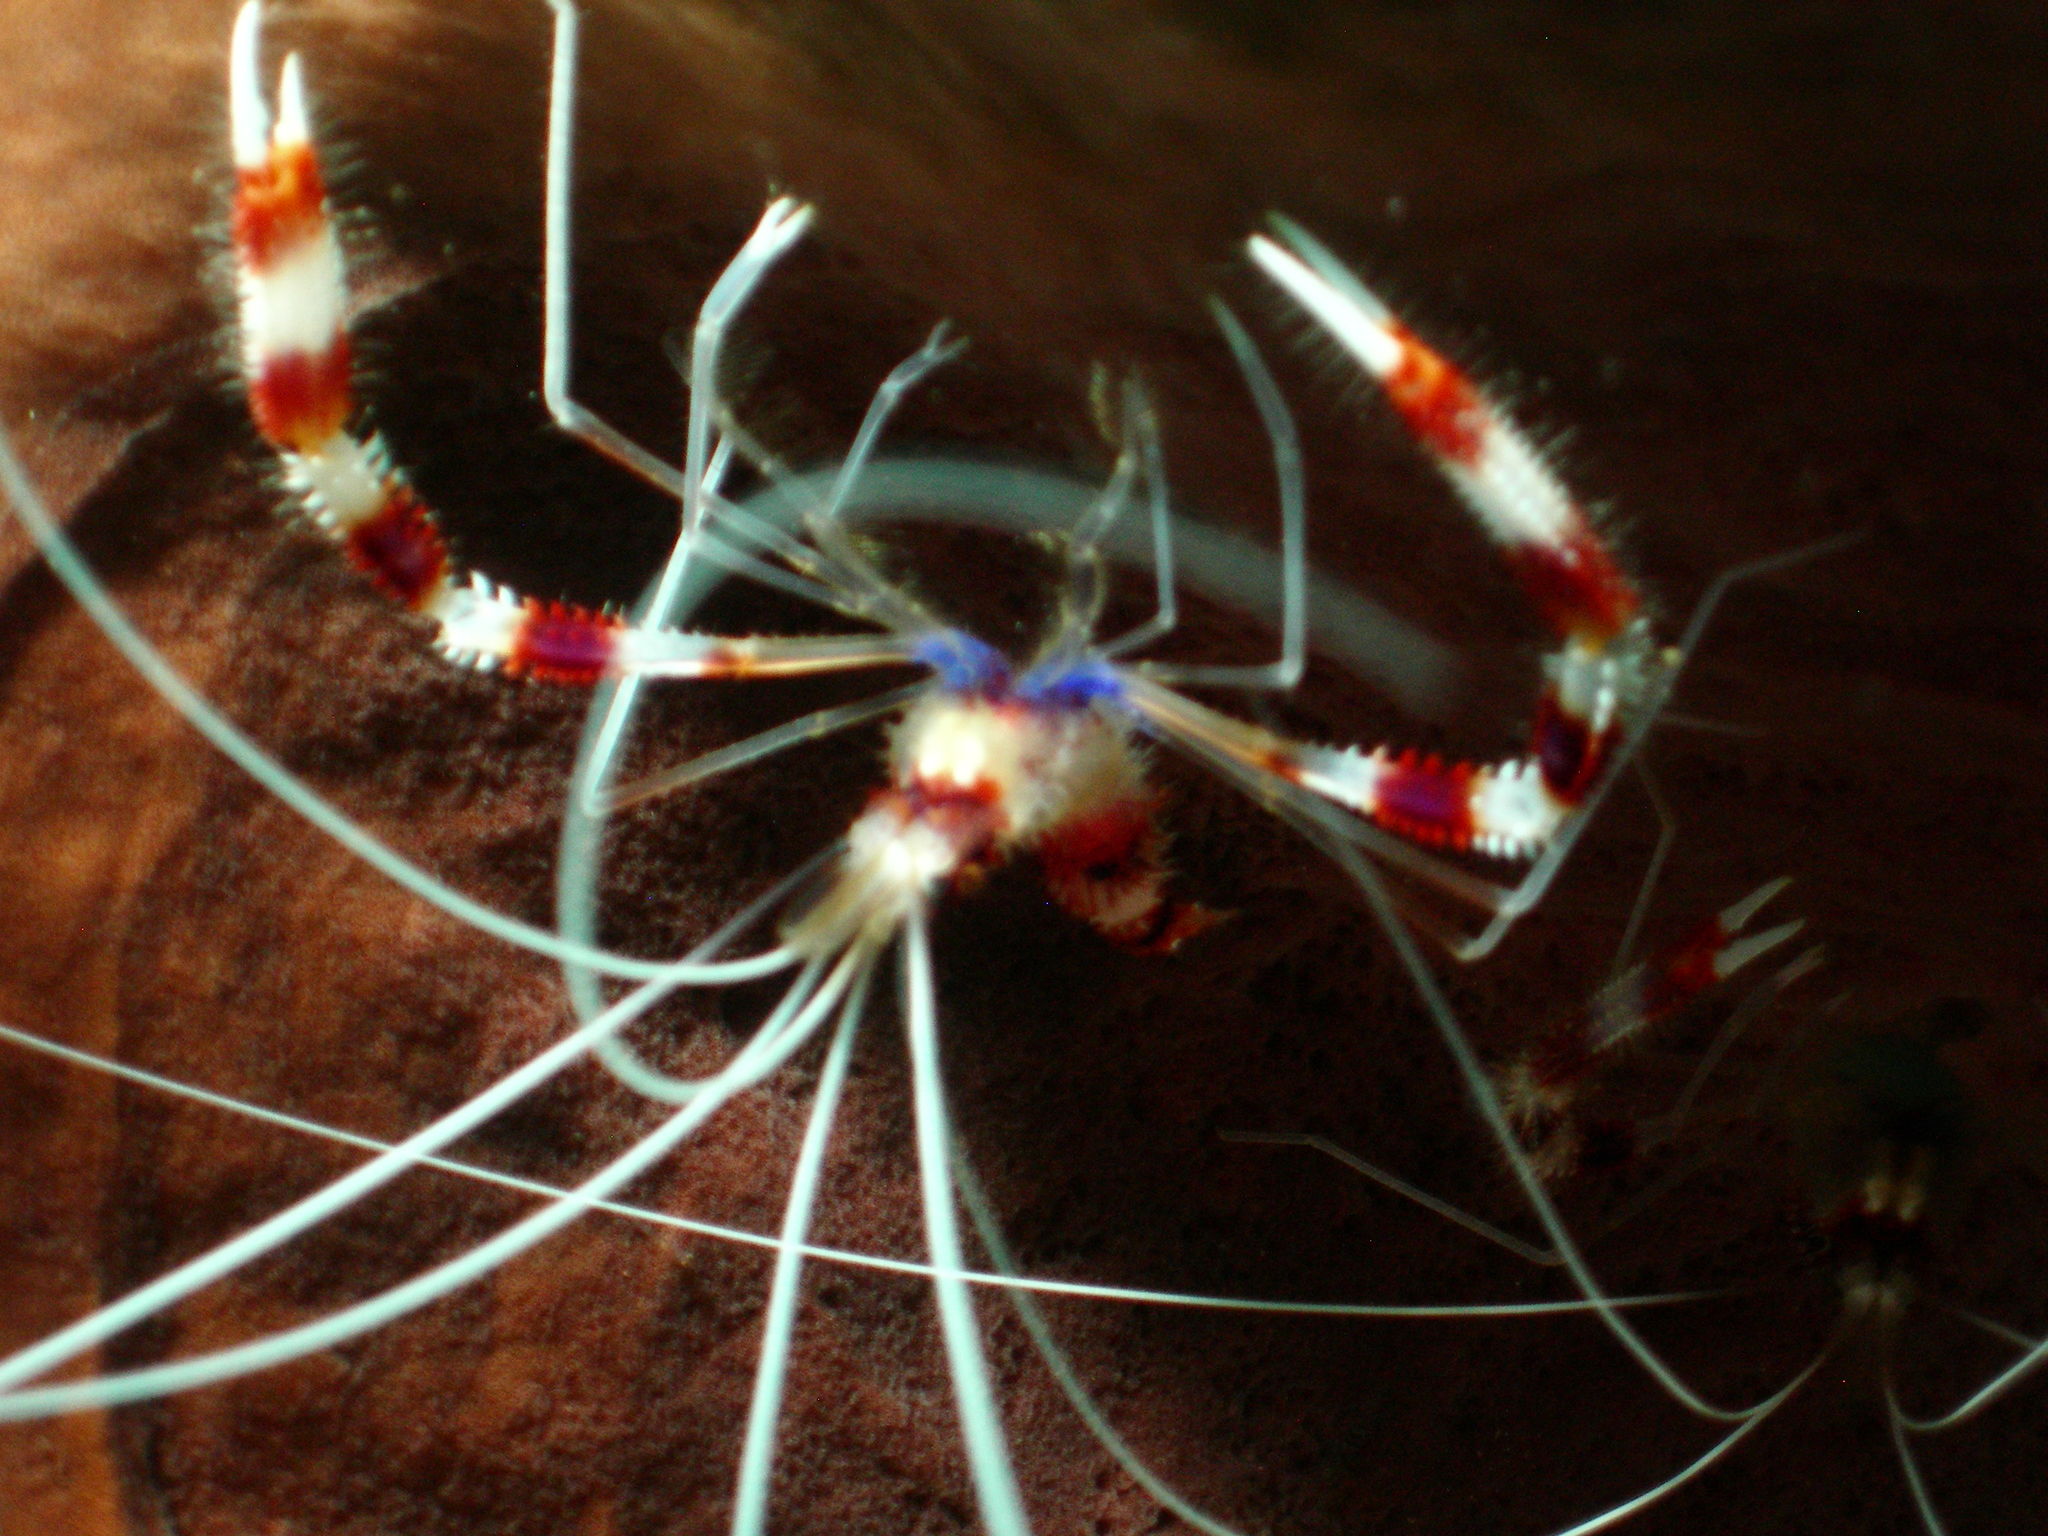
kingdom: Animalia
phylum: Arthropoda
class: Malacostraca
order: Decapoda
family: Stenopodidae
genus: Stenopus
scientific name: Stenopus hispidus
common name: Banded coral shrimp
